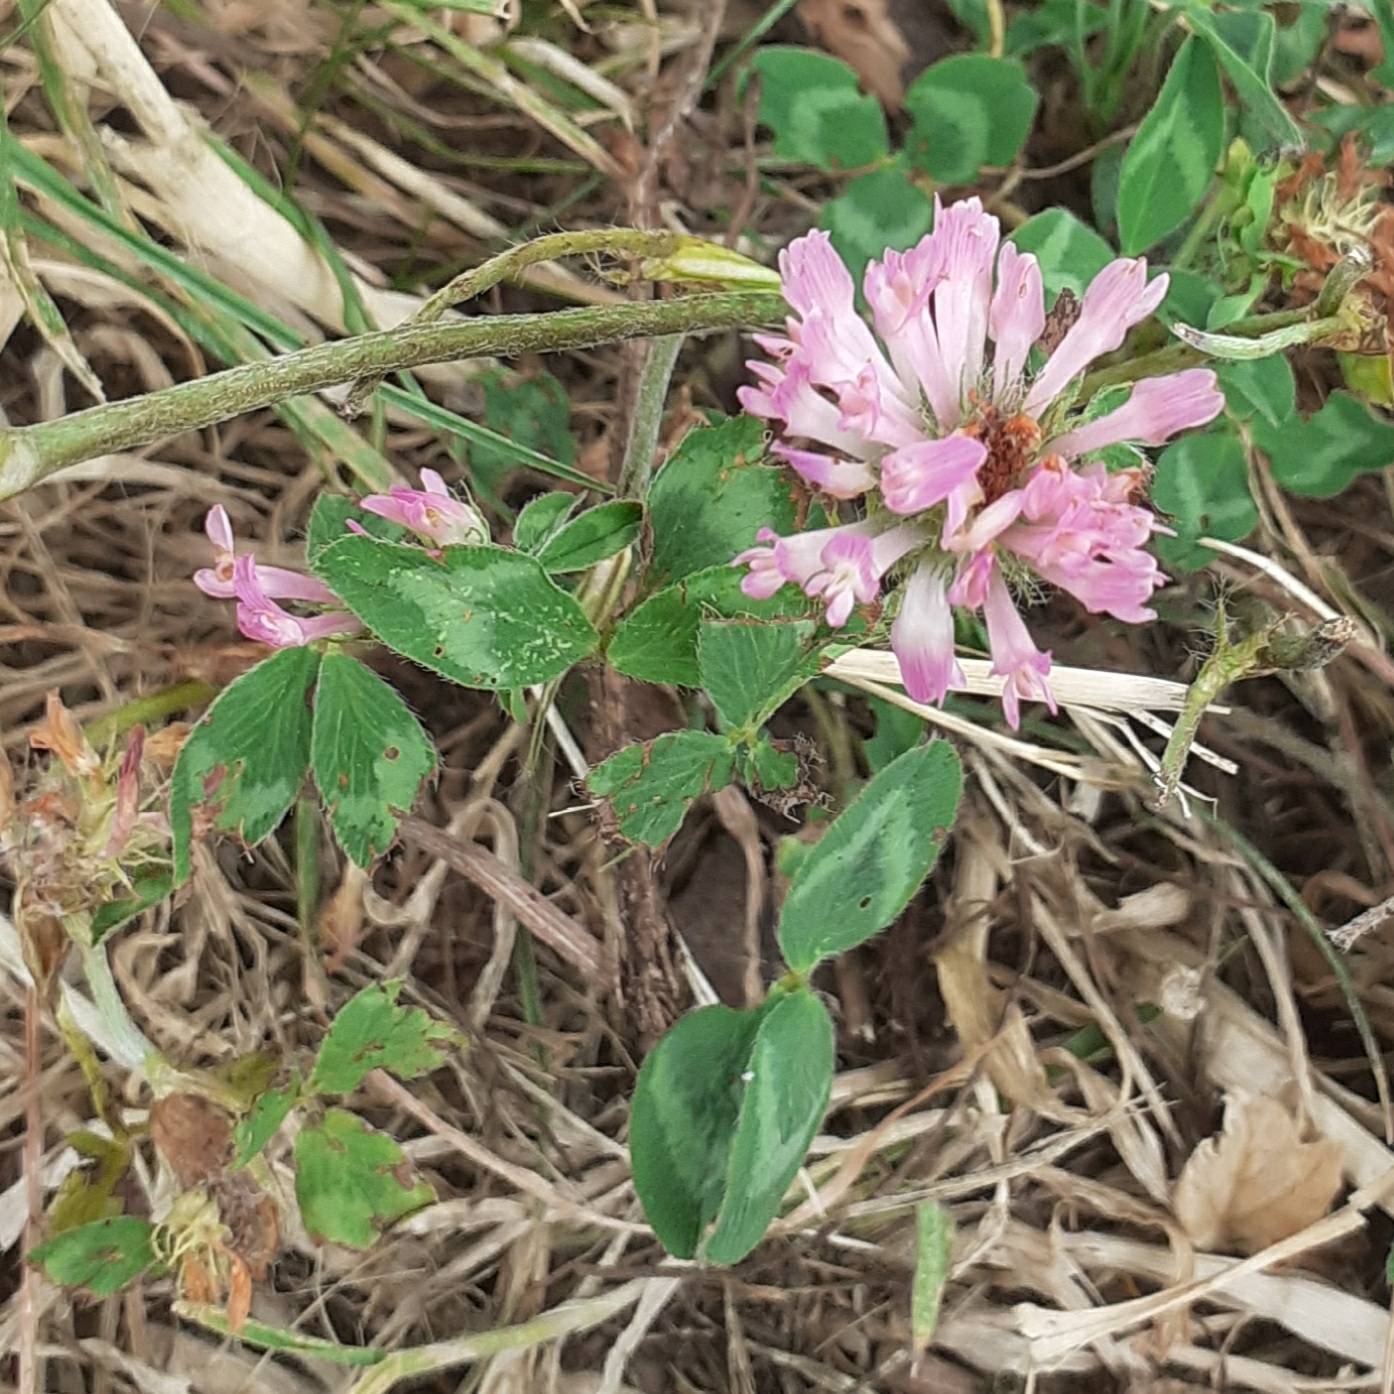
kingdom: Plantae
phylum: Tracheophyta
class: Magnoliopsida
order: Fabales
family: Fabaceae
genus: Trifolium
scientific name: Trifolium pratense
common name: Red clover
